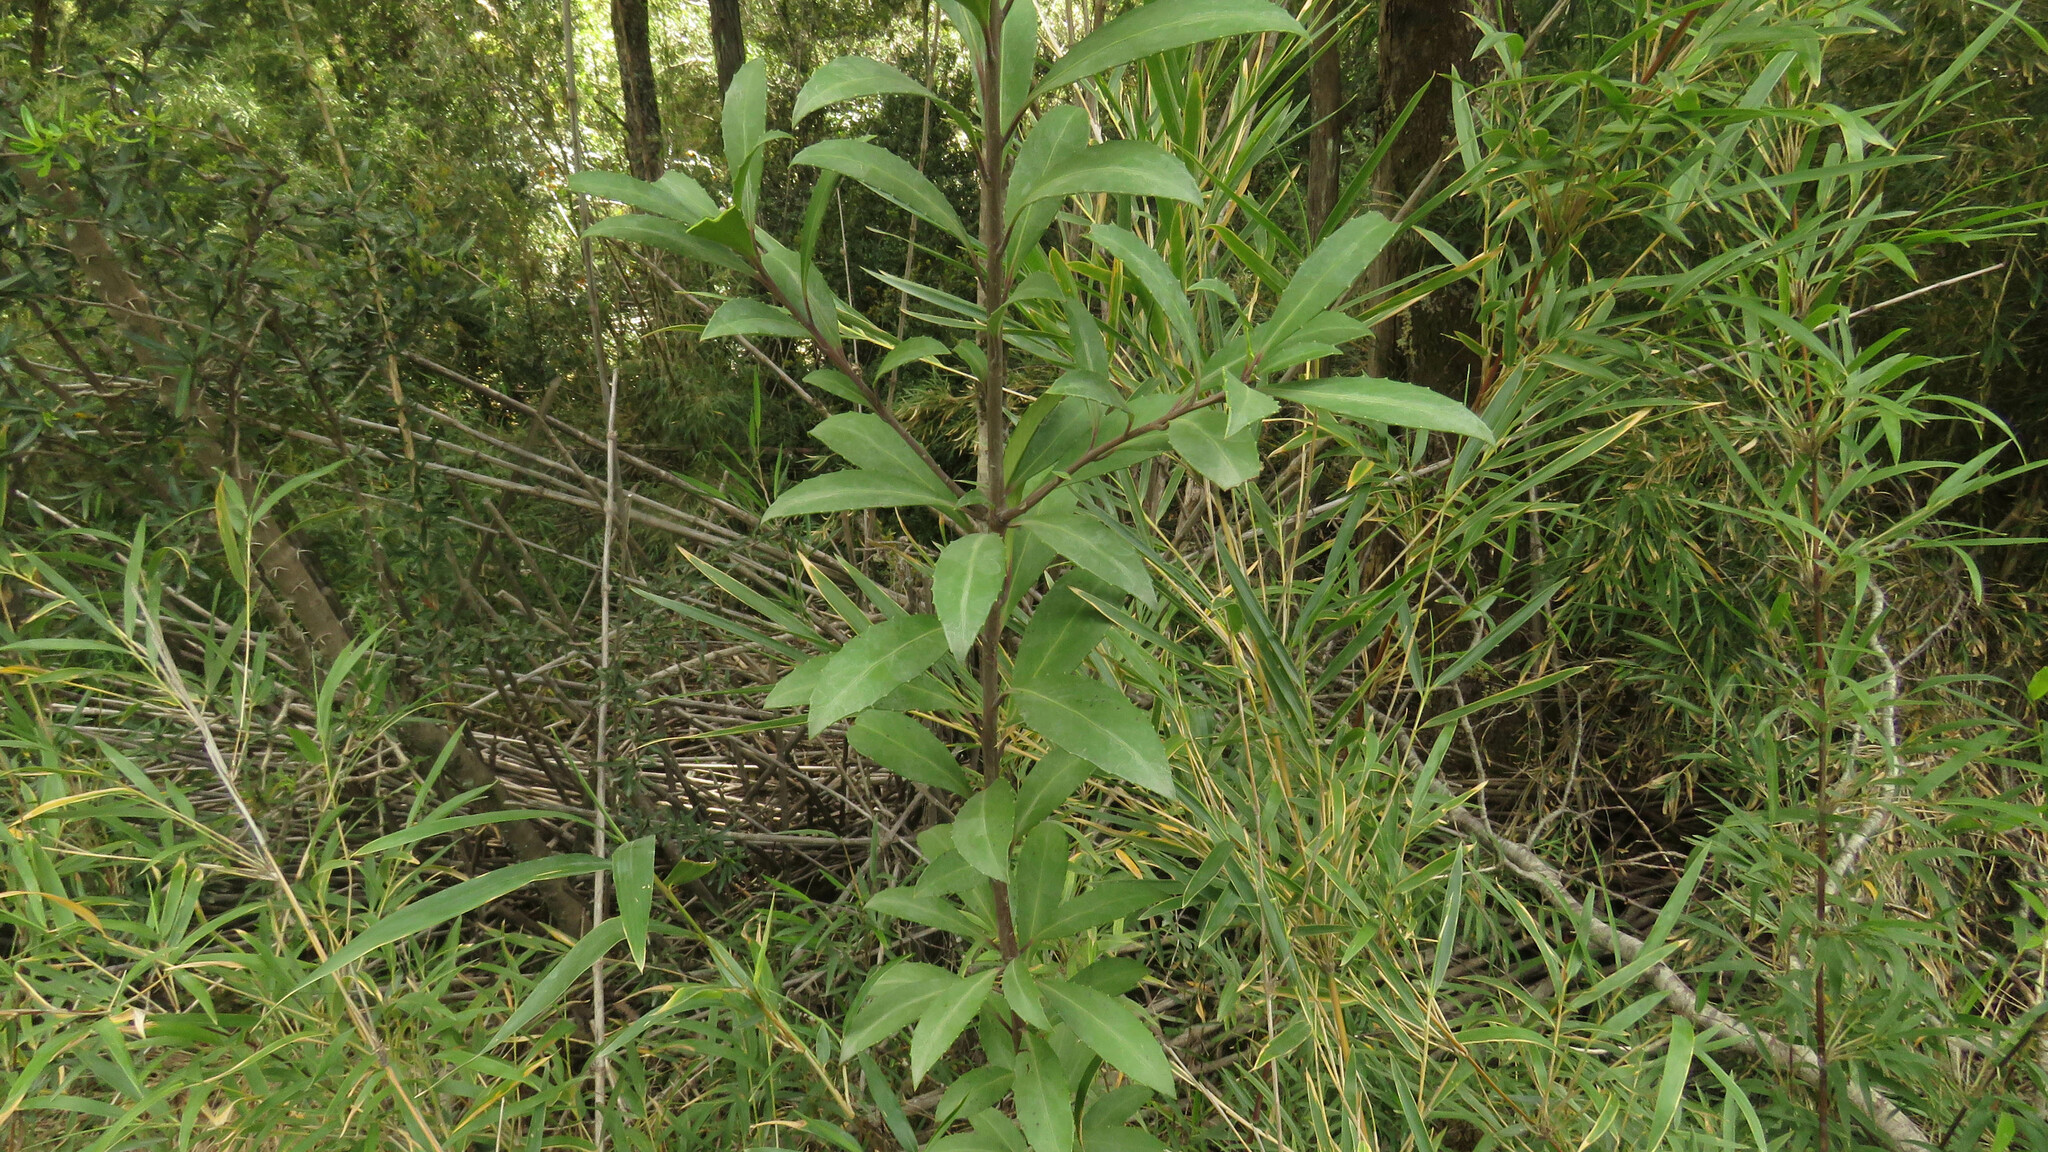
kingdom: Plantae
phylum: Tracheophyta
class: Magnoliopsida
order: Celastrales
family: Celastraceae
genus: Maytenus
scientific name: Maytenus magellanica
